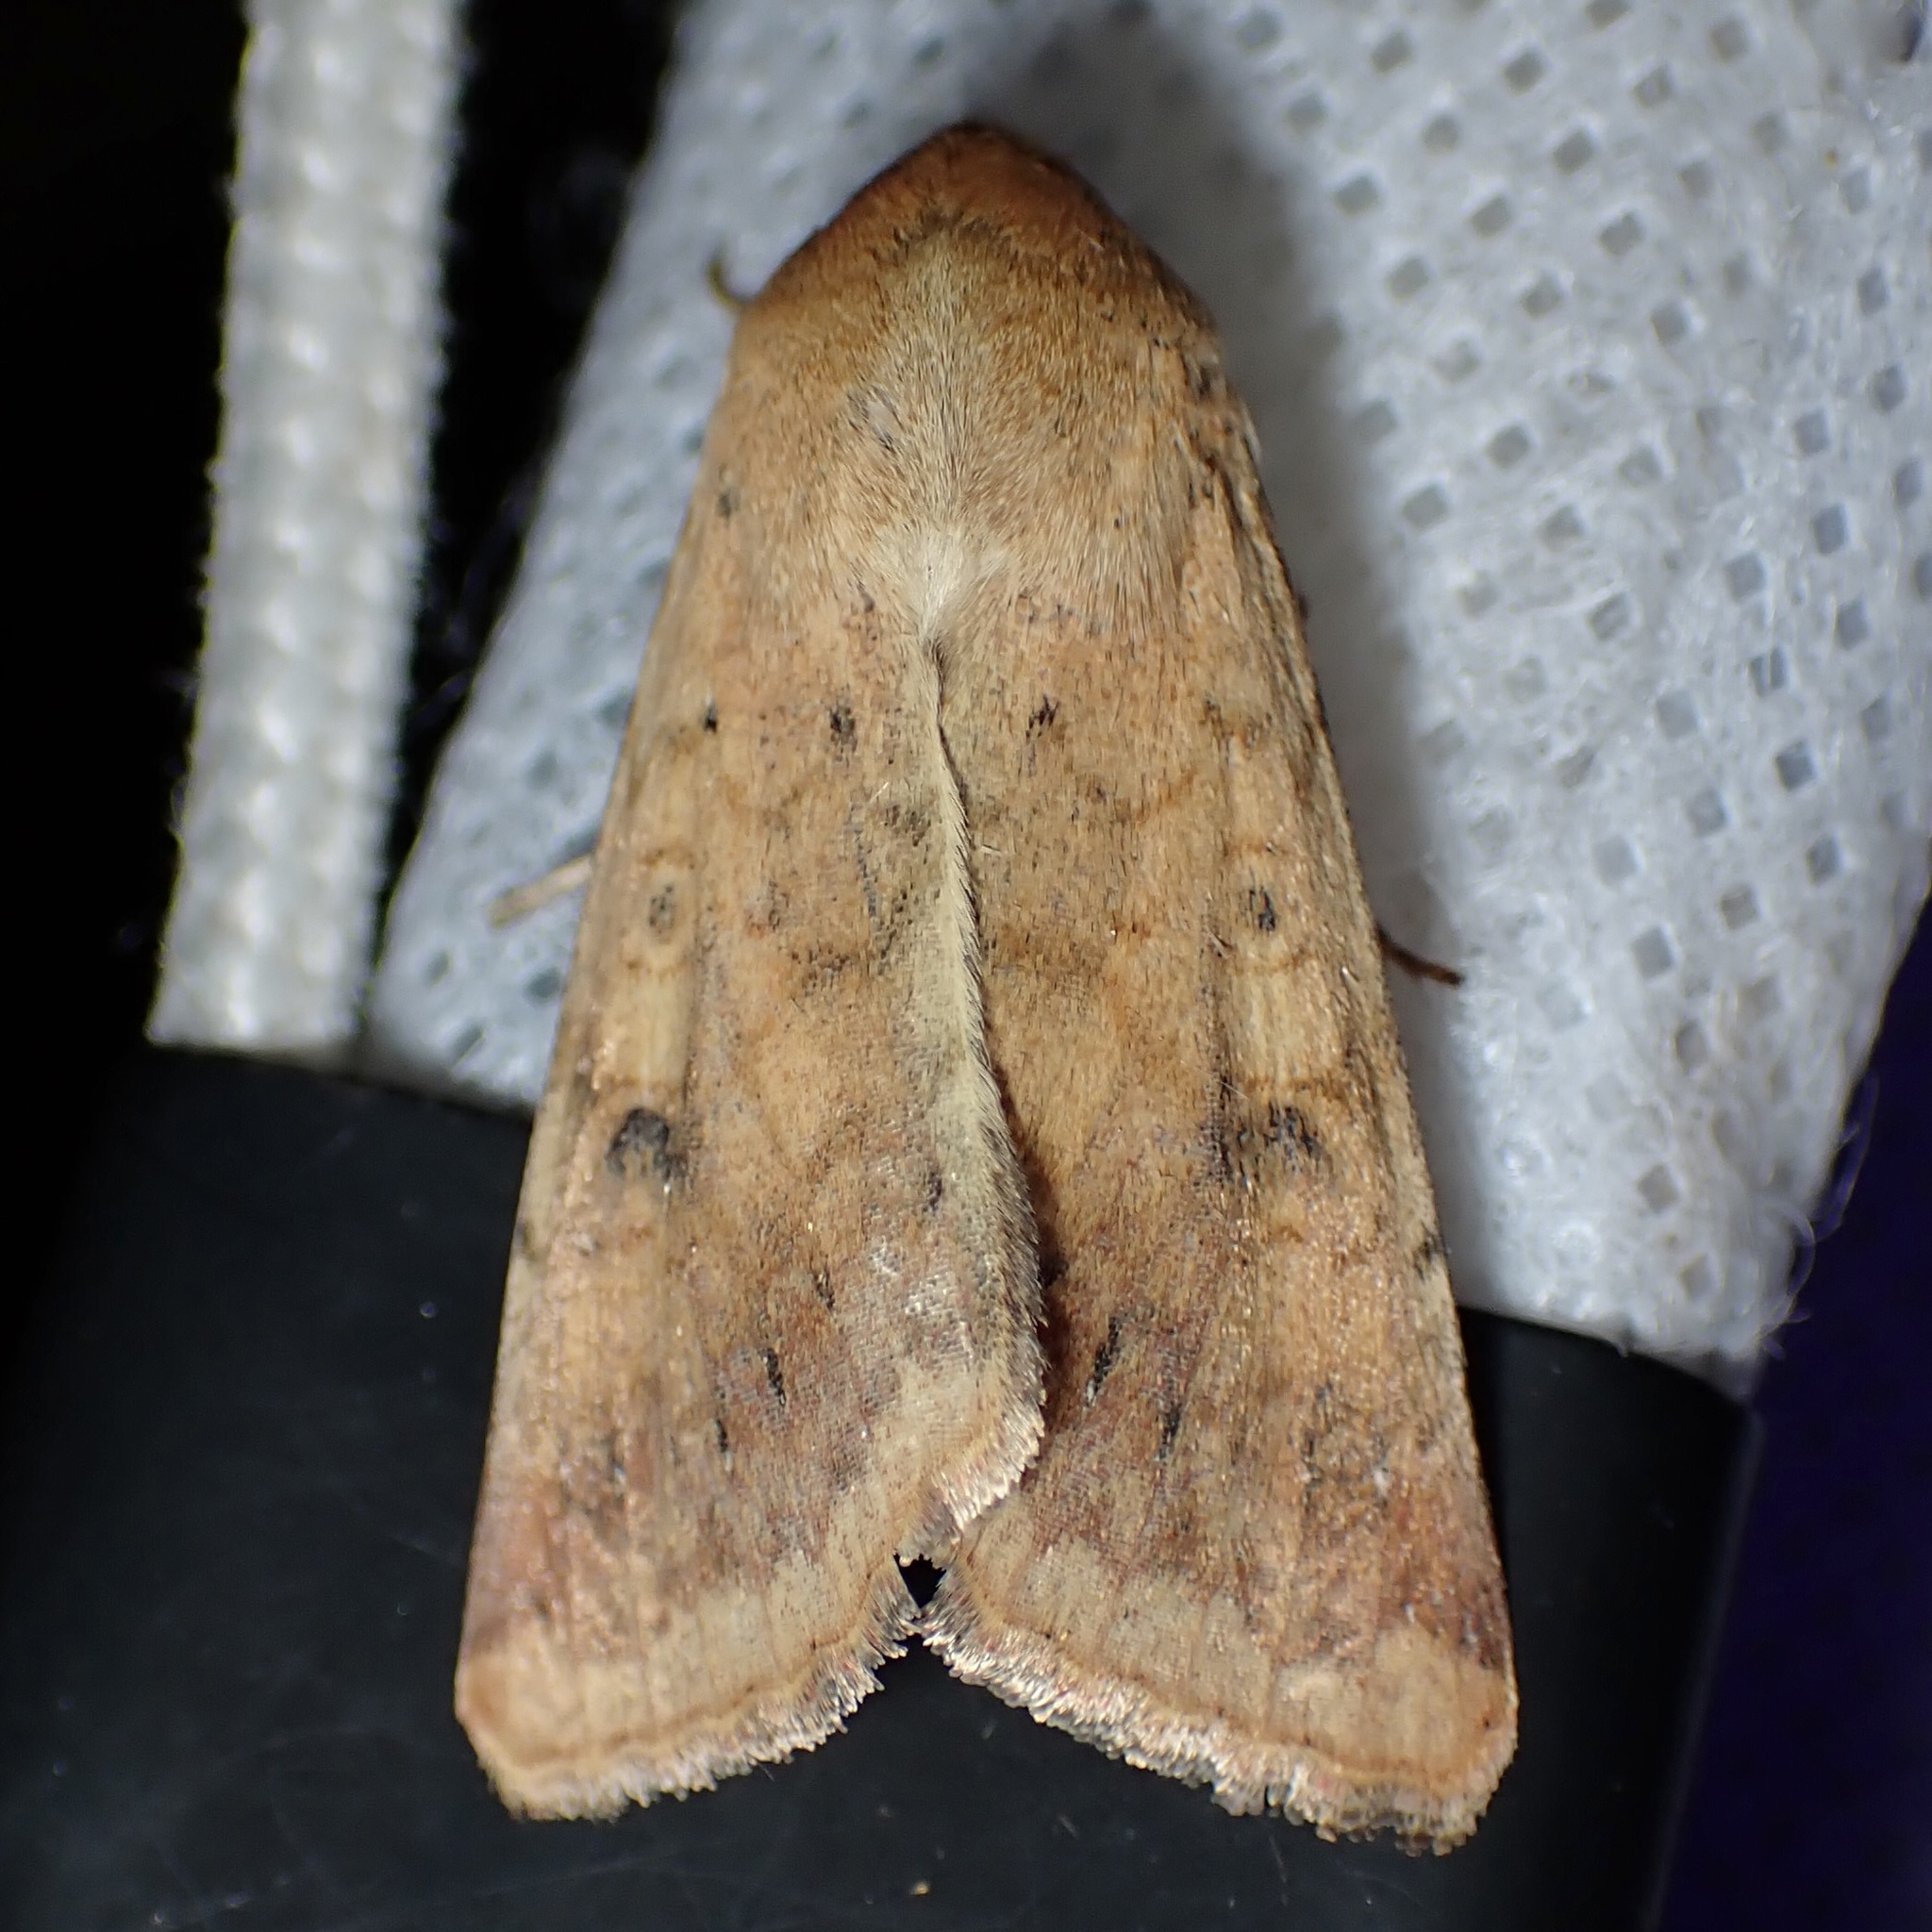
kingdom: Animalia
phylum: Arthropoda
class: Insecta
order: Lepidoptera
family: Noctuidae
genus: Helicoverpa
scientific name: Helicoverpa zea
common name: Bollworm
